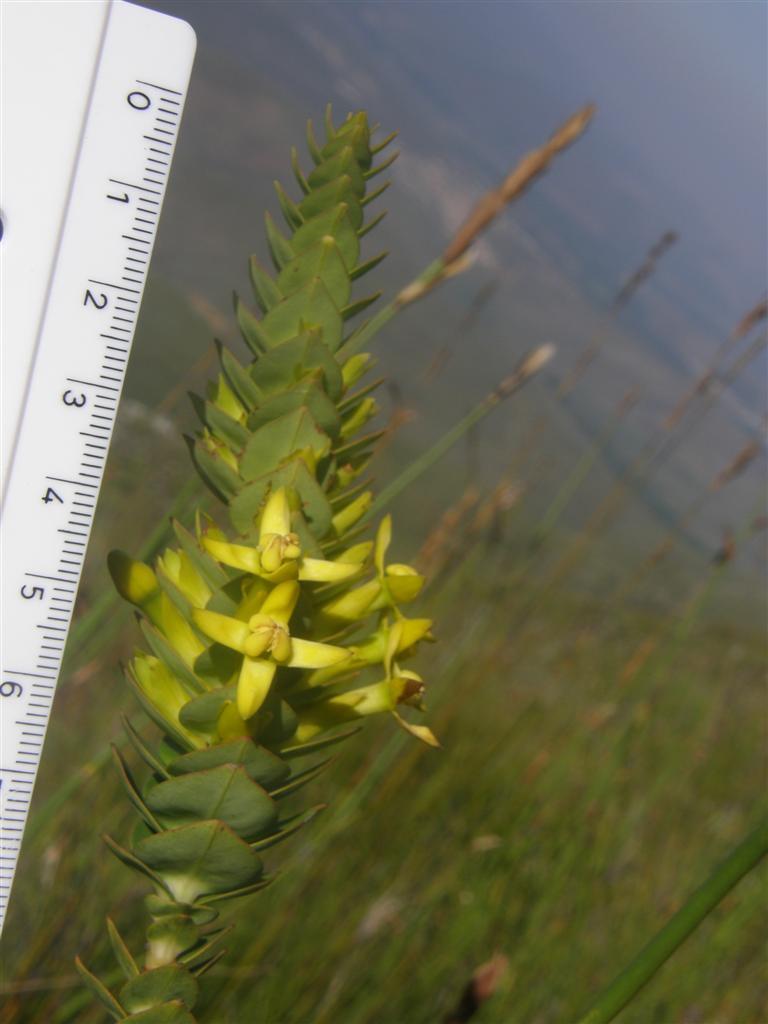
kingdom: Plantae
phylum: Tracheophyta
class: Magnoliopsida
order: Myrtales
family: Penaeaceae
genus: Endonema
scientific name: Endonema lateriflora
